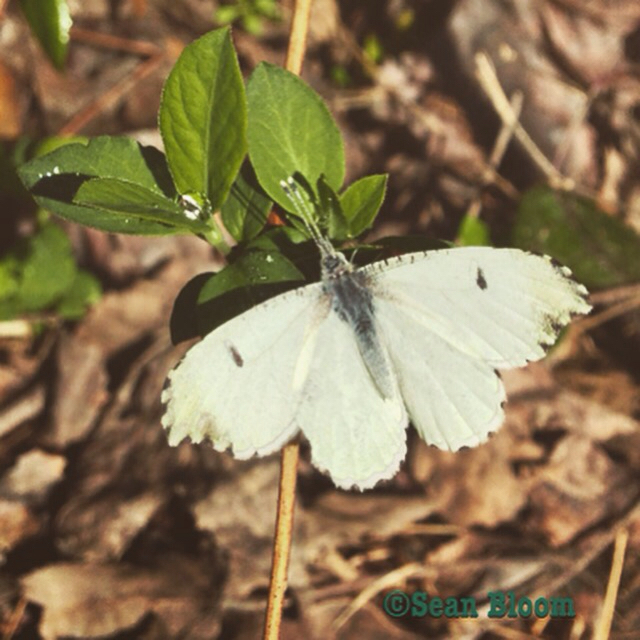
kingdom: Animalia
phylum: Arthropoda
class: Insecta
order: Lepidoptera
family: Pieridae
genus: Anthocharis
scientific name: Anthocharis midea
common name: Falcate orangetip
